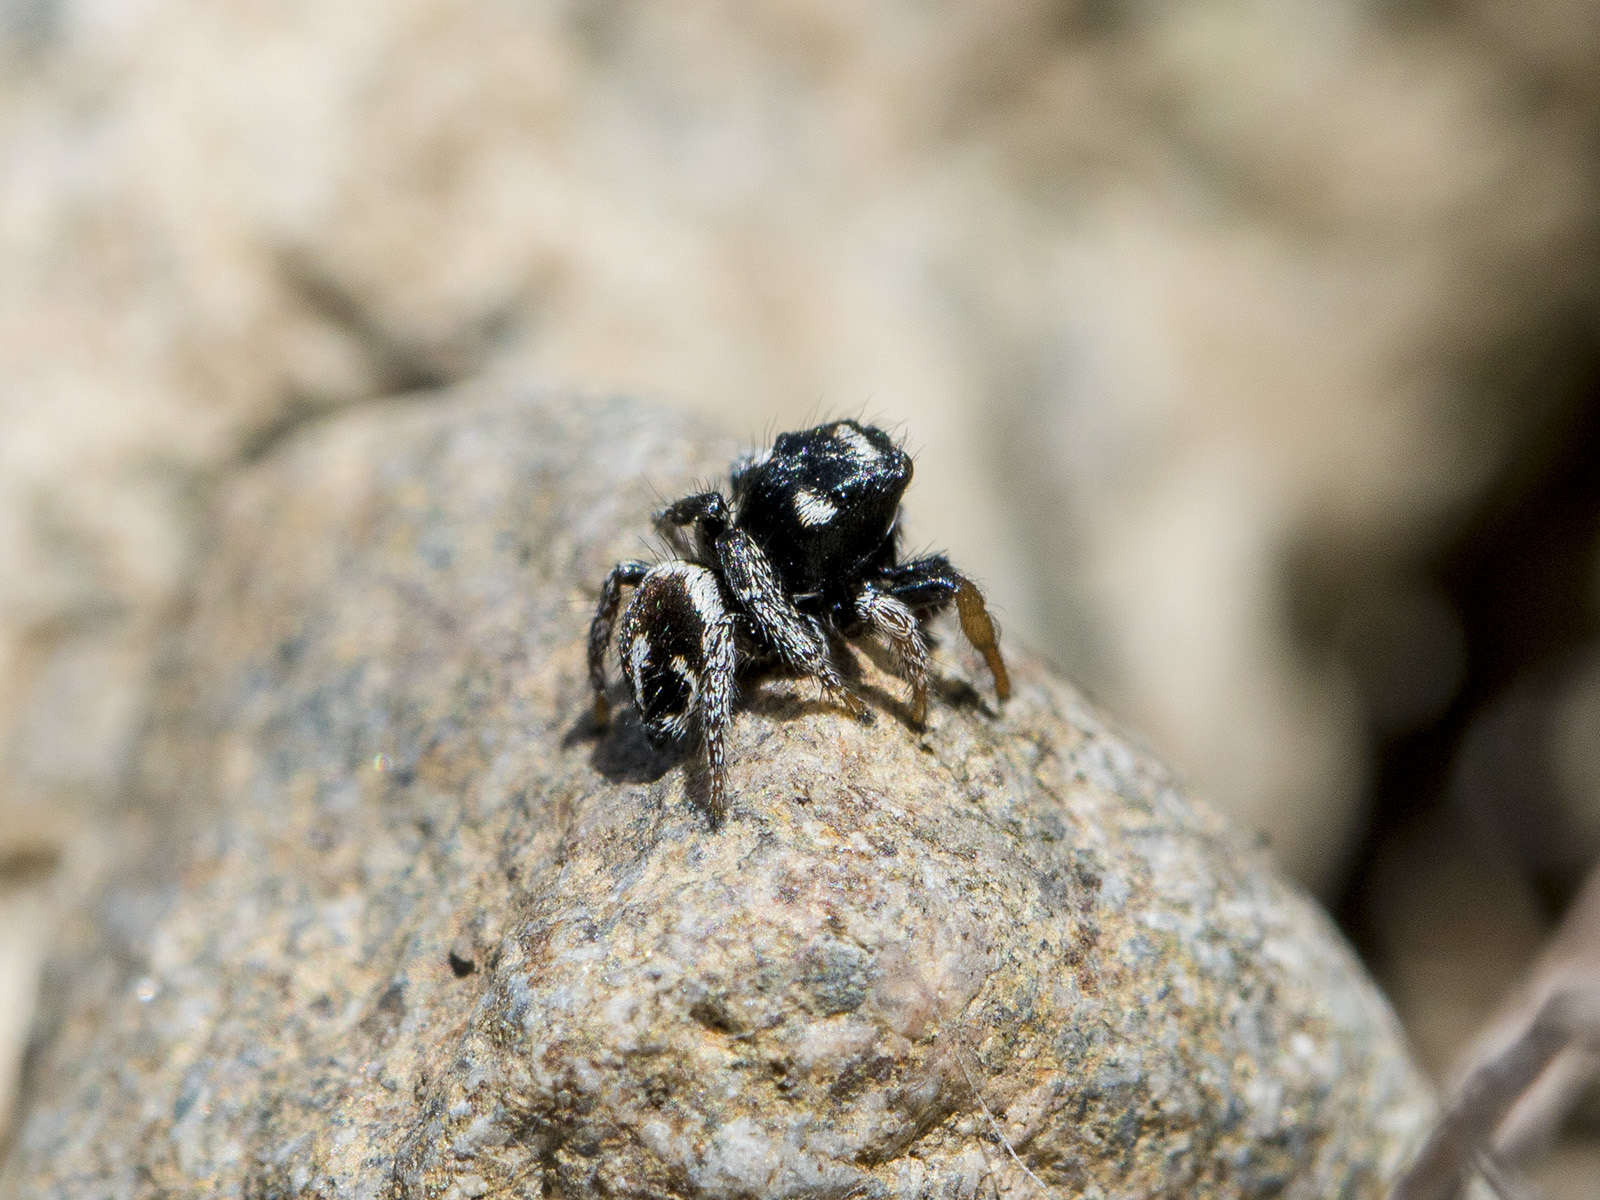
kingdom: Animalia
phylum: Arthropoda
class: Arachnida
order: Araneae
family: Salticidae
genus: Pellenes
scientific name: Pellenes geniculatus
